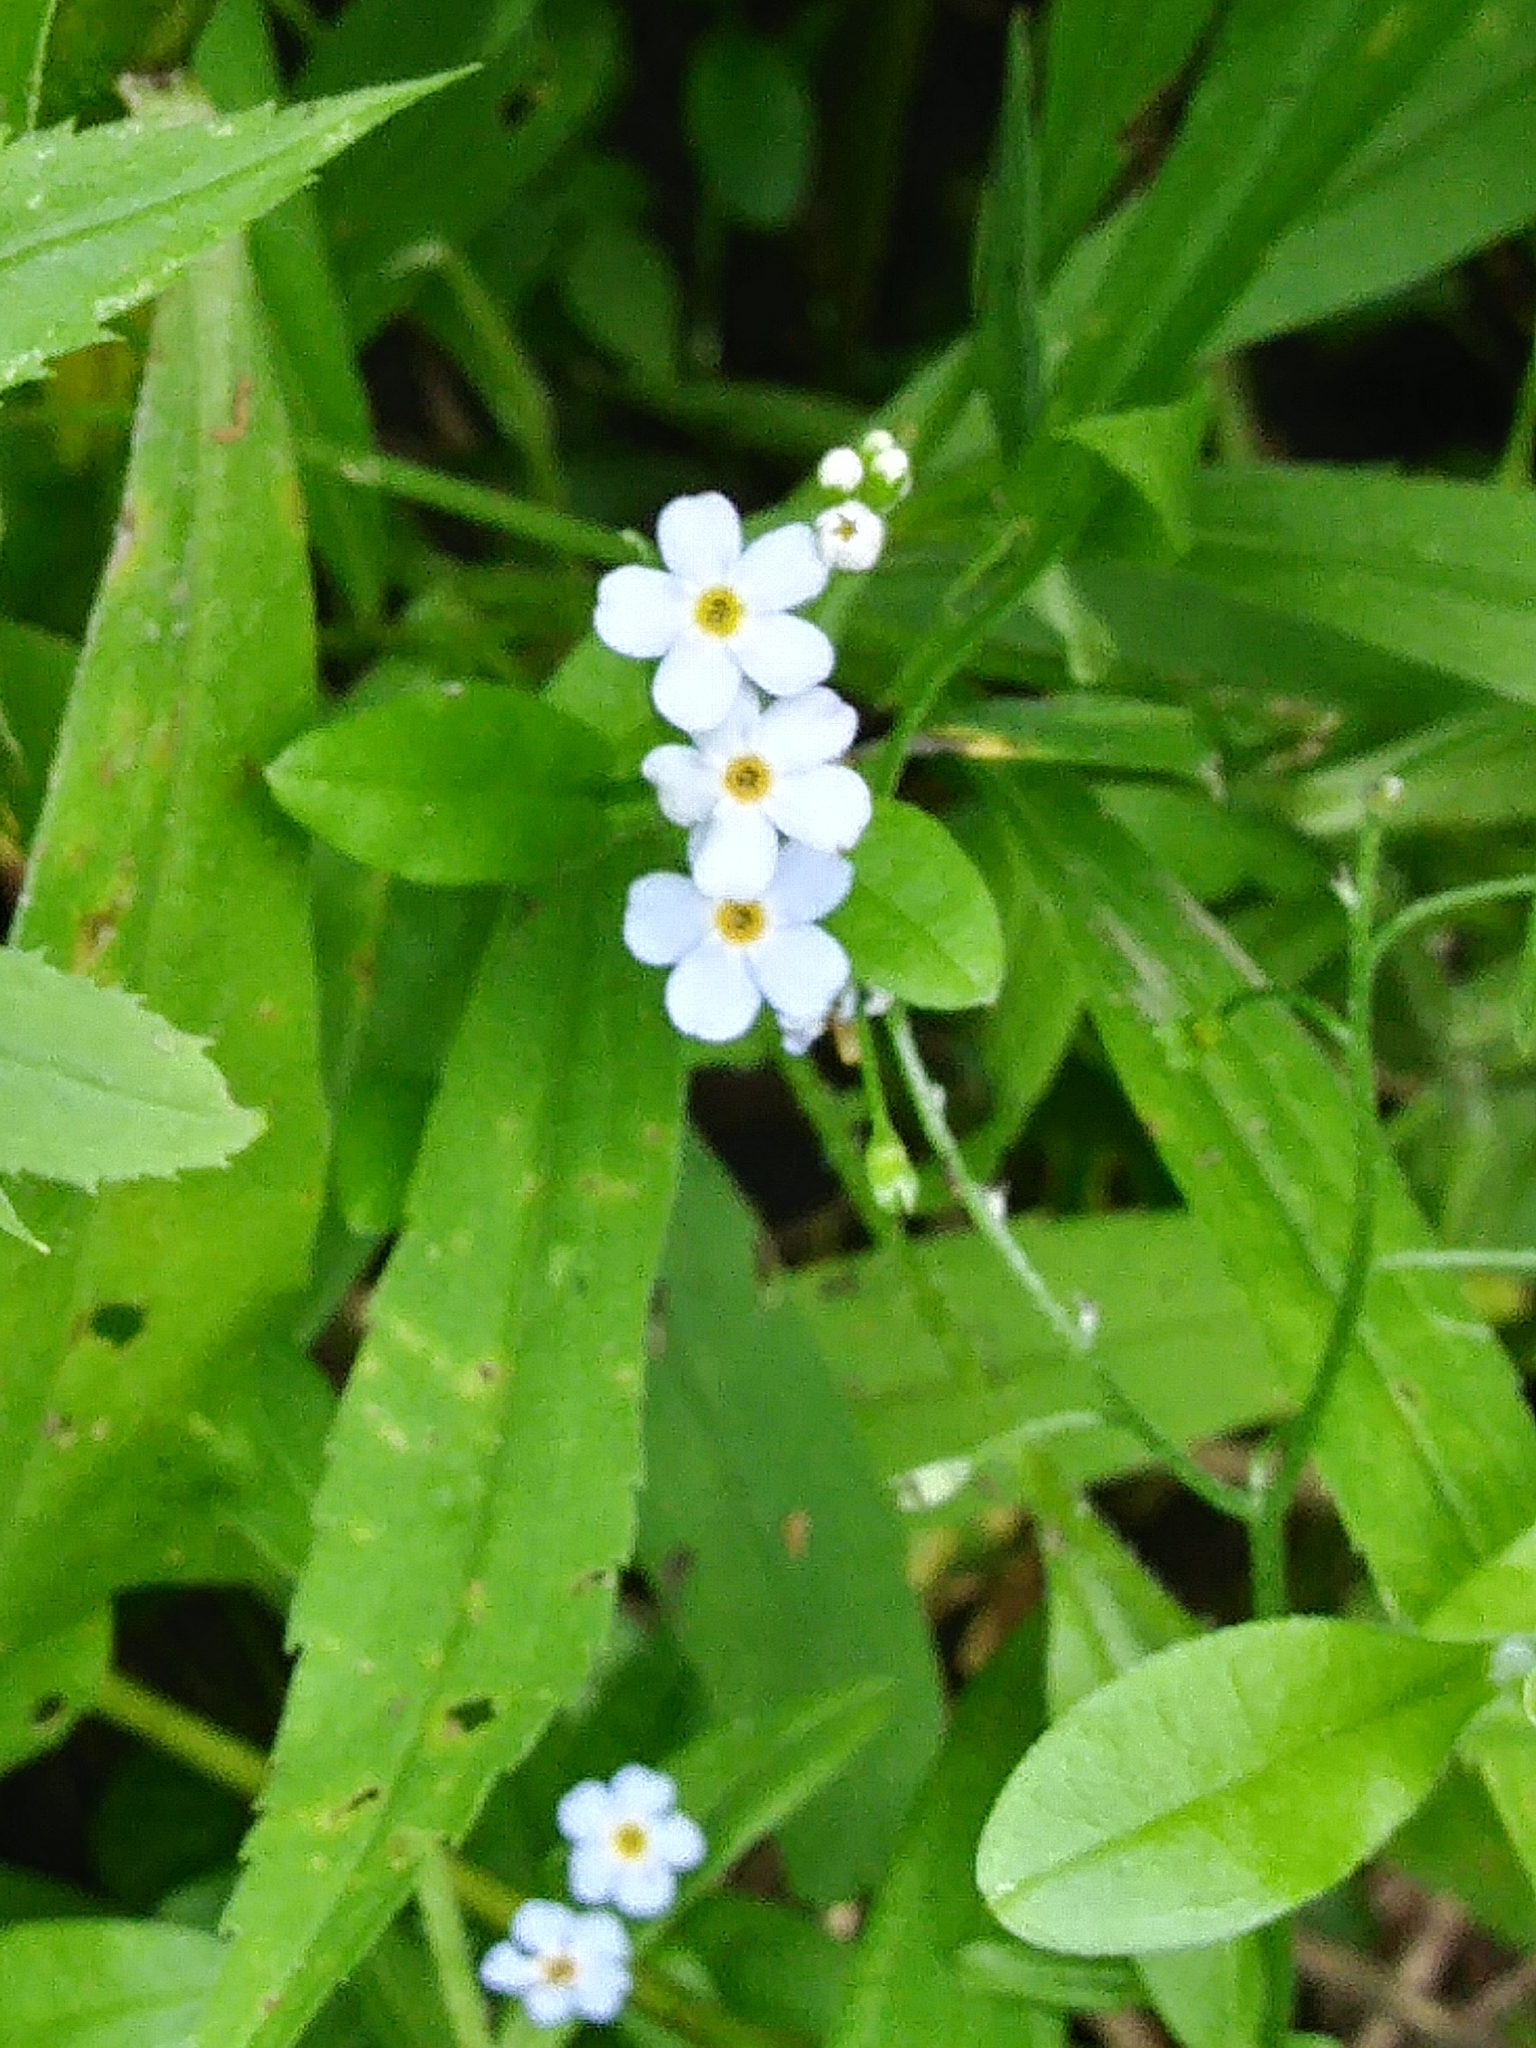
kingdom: Plantae
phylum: Tracheophyta
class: Magnoliopsida
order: Boraginales
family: Boraginaceae
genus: Myosotis
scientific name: Myosotis scorpioides
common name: Water forget-me-not
